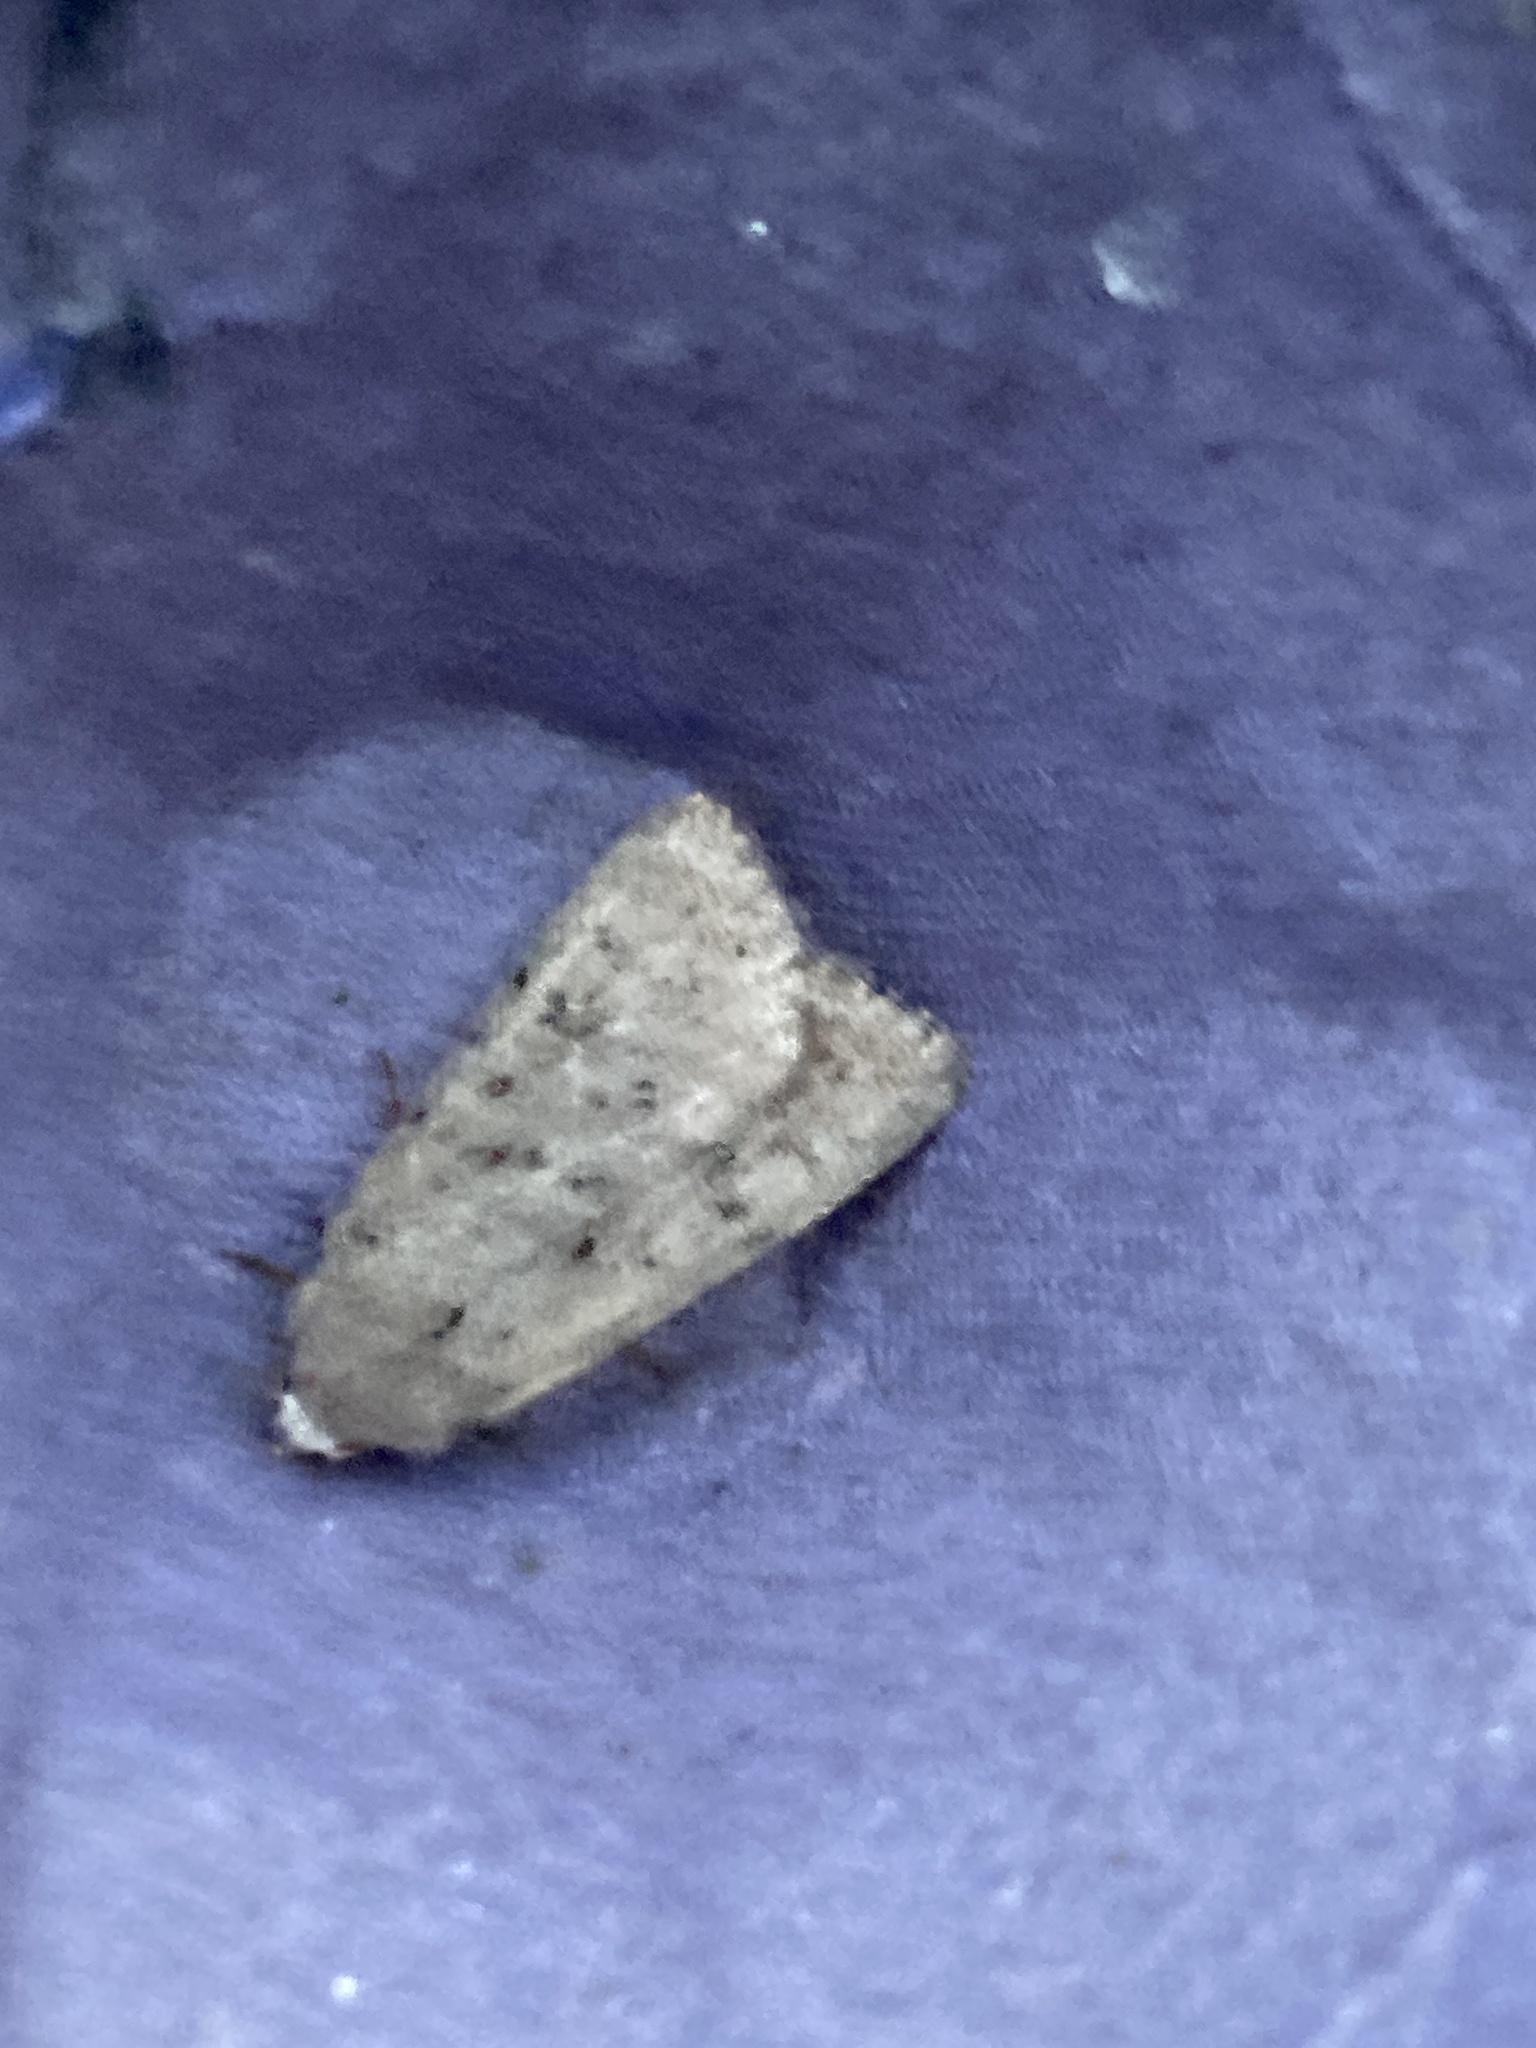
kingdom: Animalia
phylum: Arthropoda
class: Insecta
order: Lepidoptera
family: Noctuidae
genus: Caradrina
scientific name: Caradrina clavipalpis
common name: Pale mottled willow
